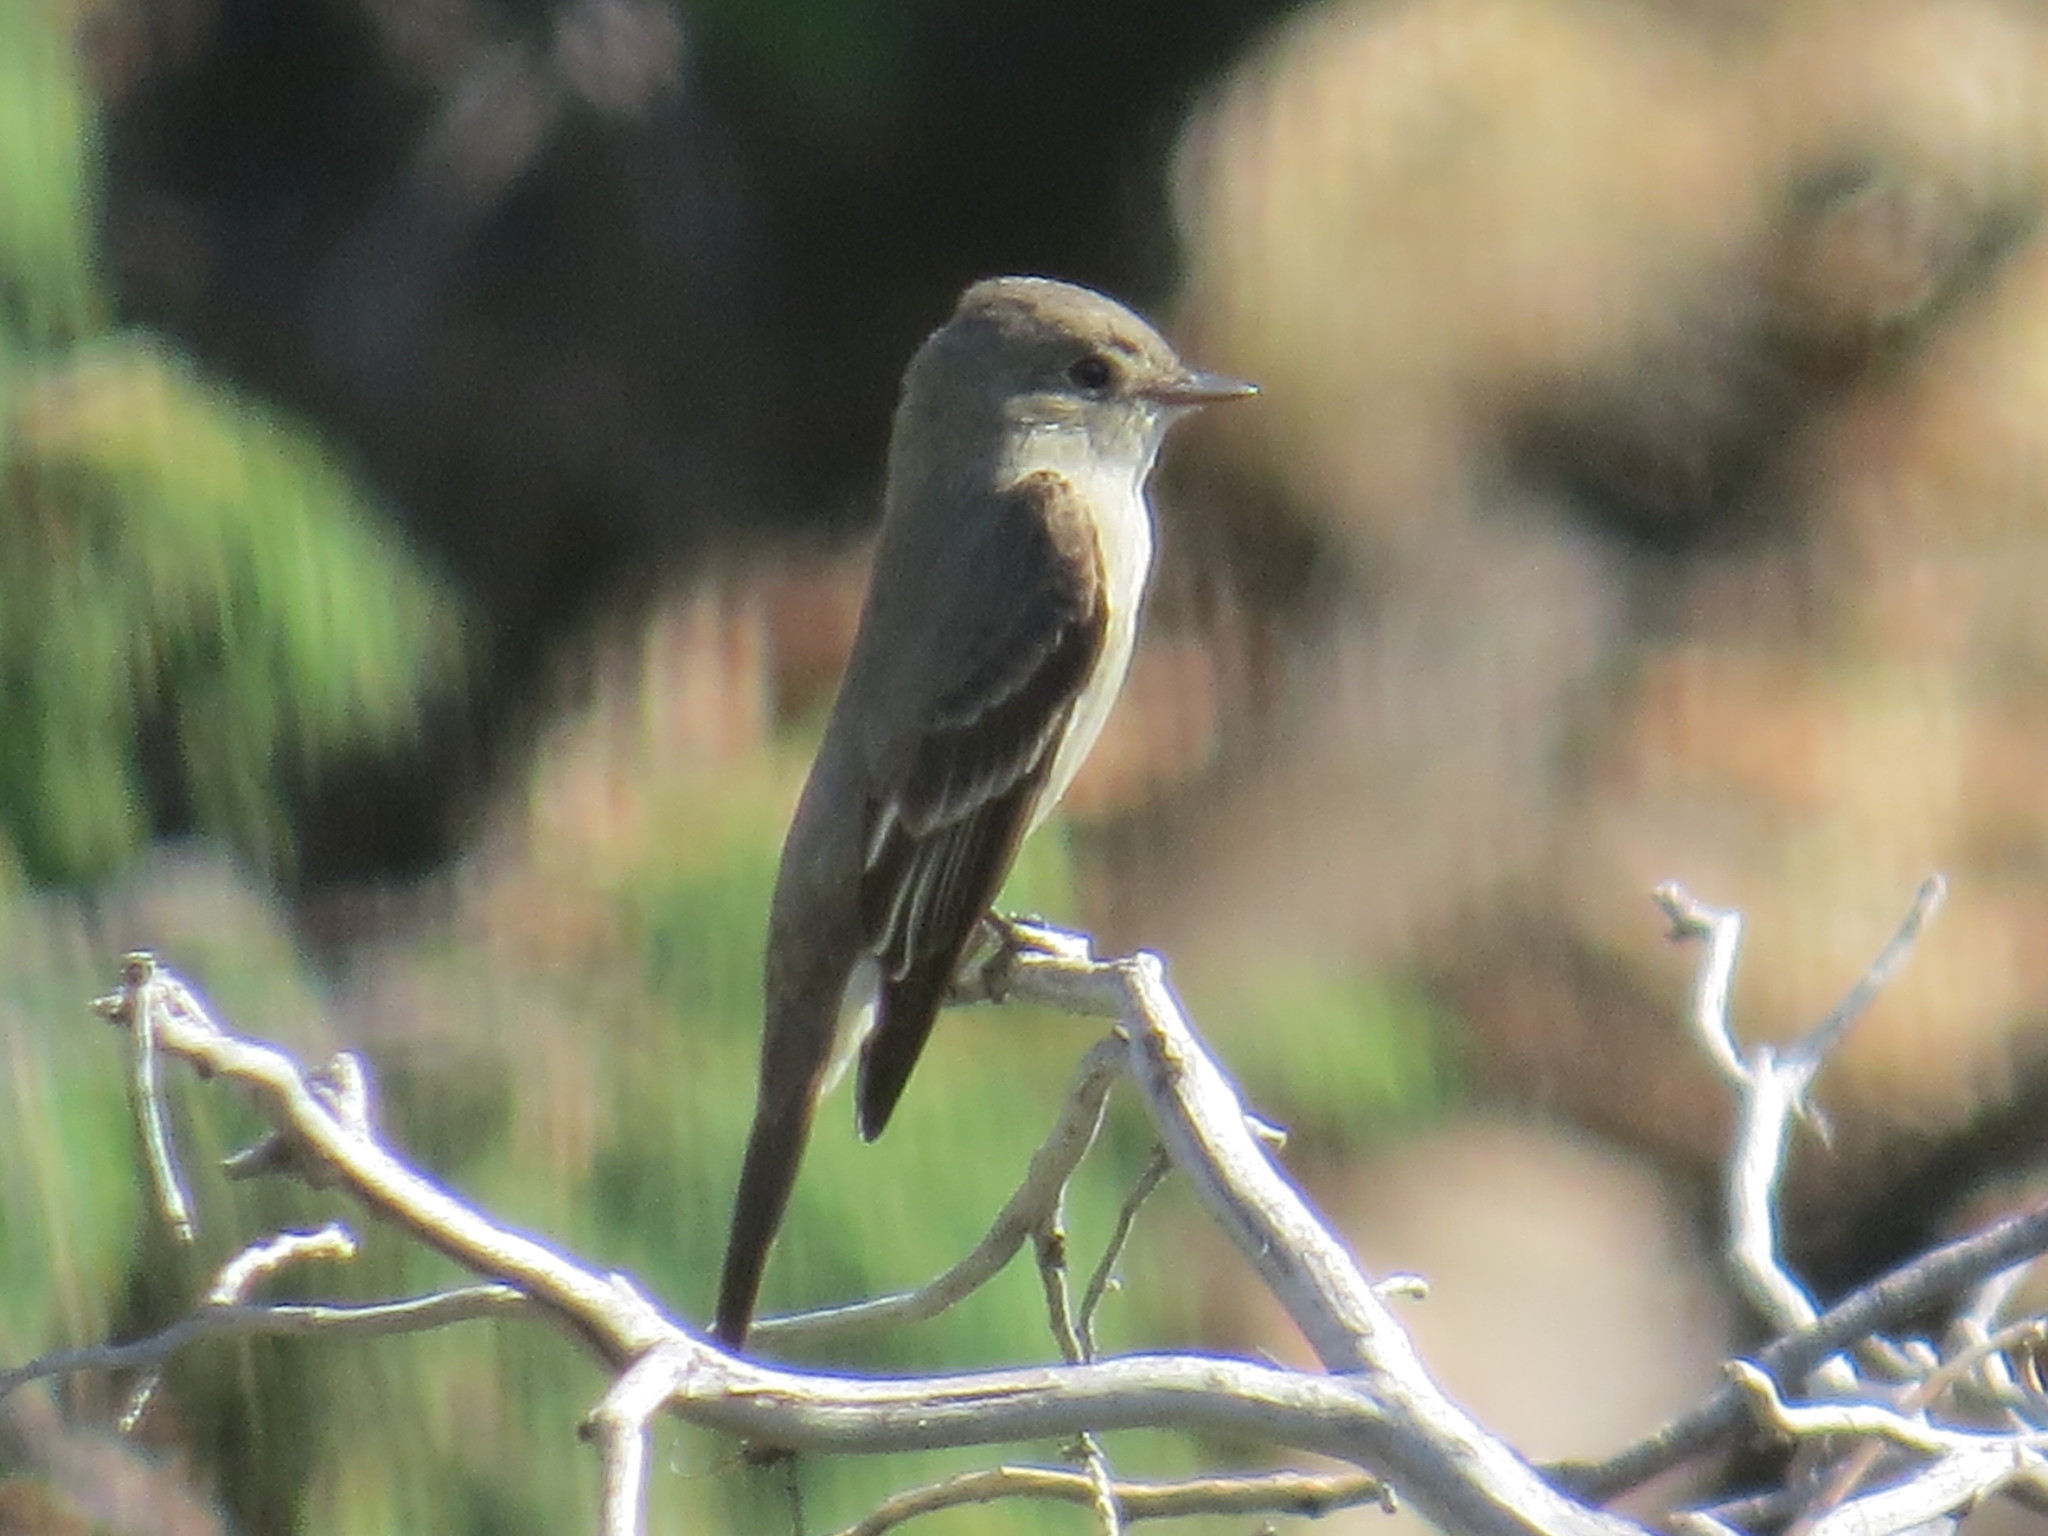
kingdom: Animalia
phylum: Chordata
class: Aves
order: Passeriformes
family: Tyrannidae
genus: Contopus
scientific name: Contopus sordidulus
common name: Western wood-pewee
